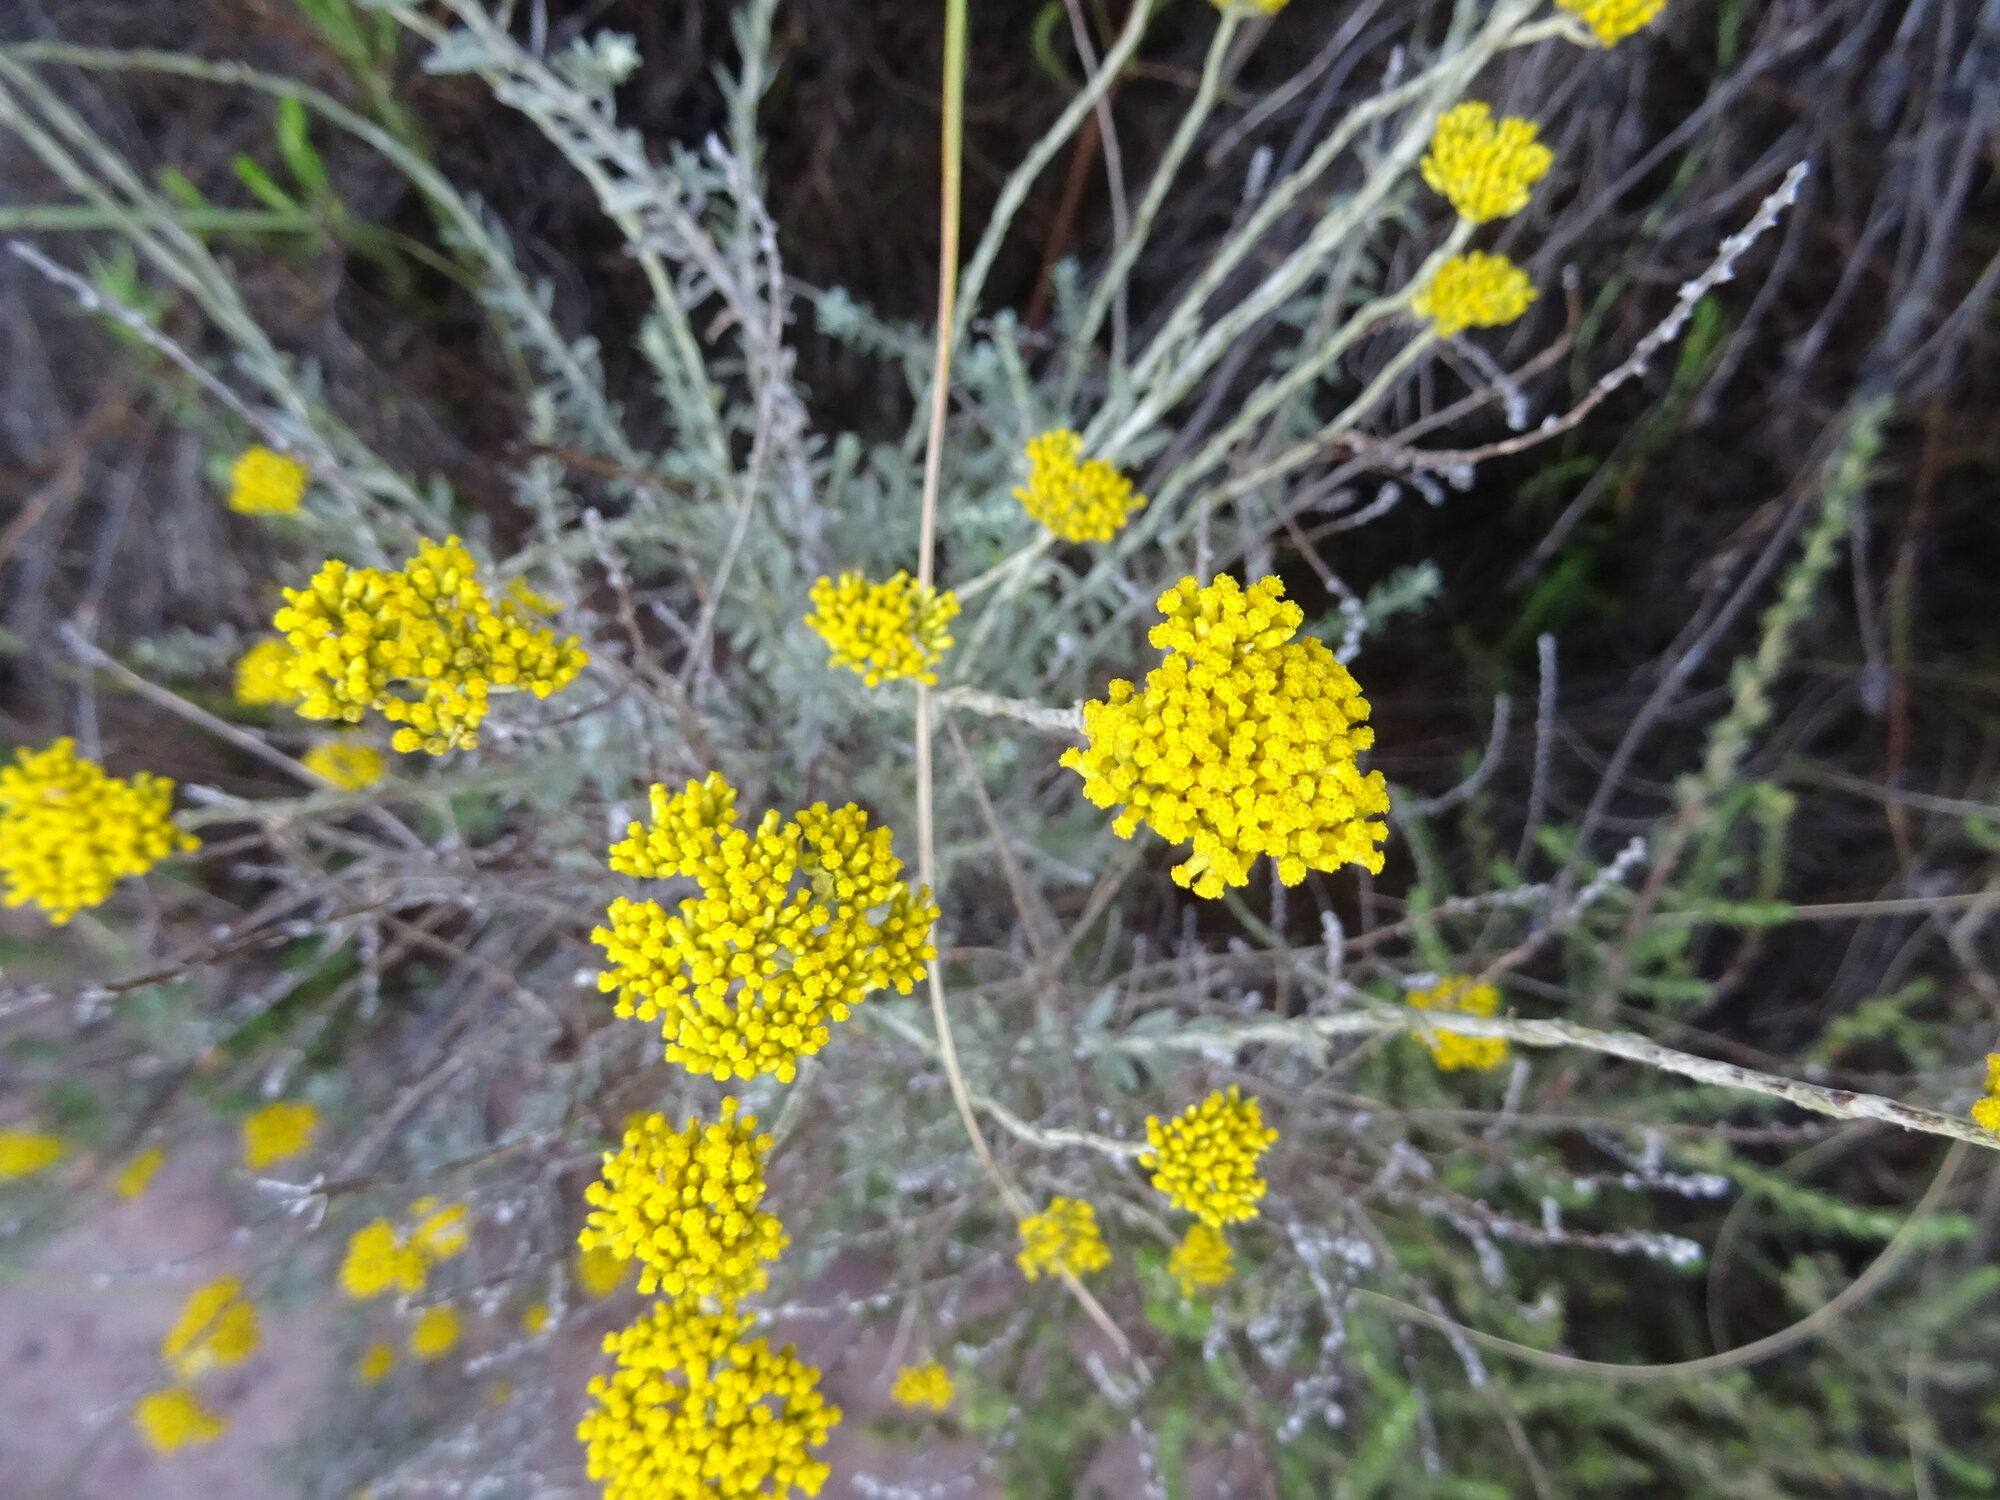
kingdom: Plantae
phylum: Tracheophyta
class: Magnoliopsida
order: Asterales
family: Asteraceae
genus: Helichrysum
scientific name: Helichrysum cymosum
